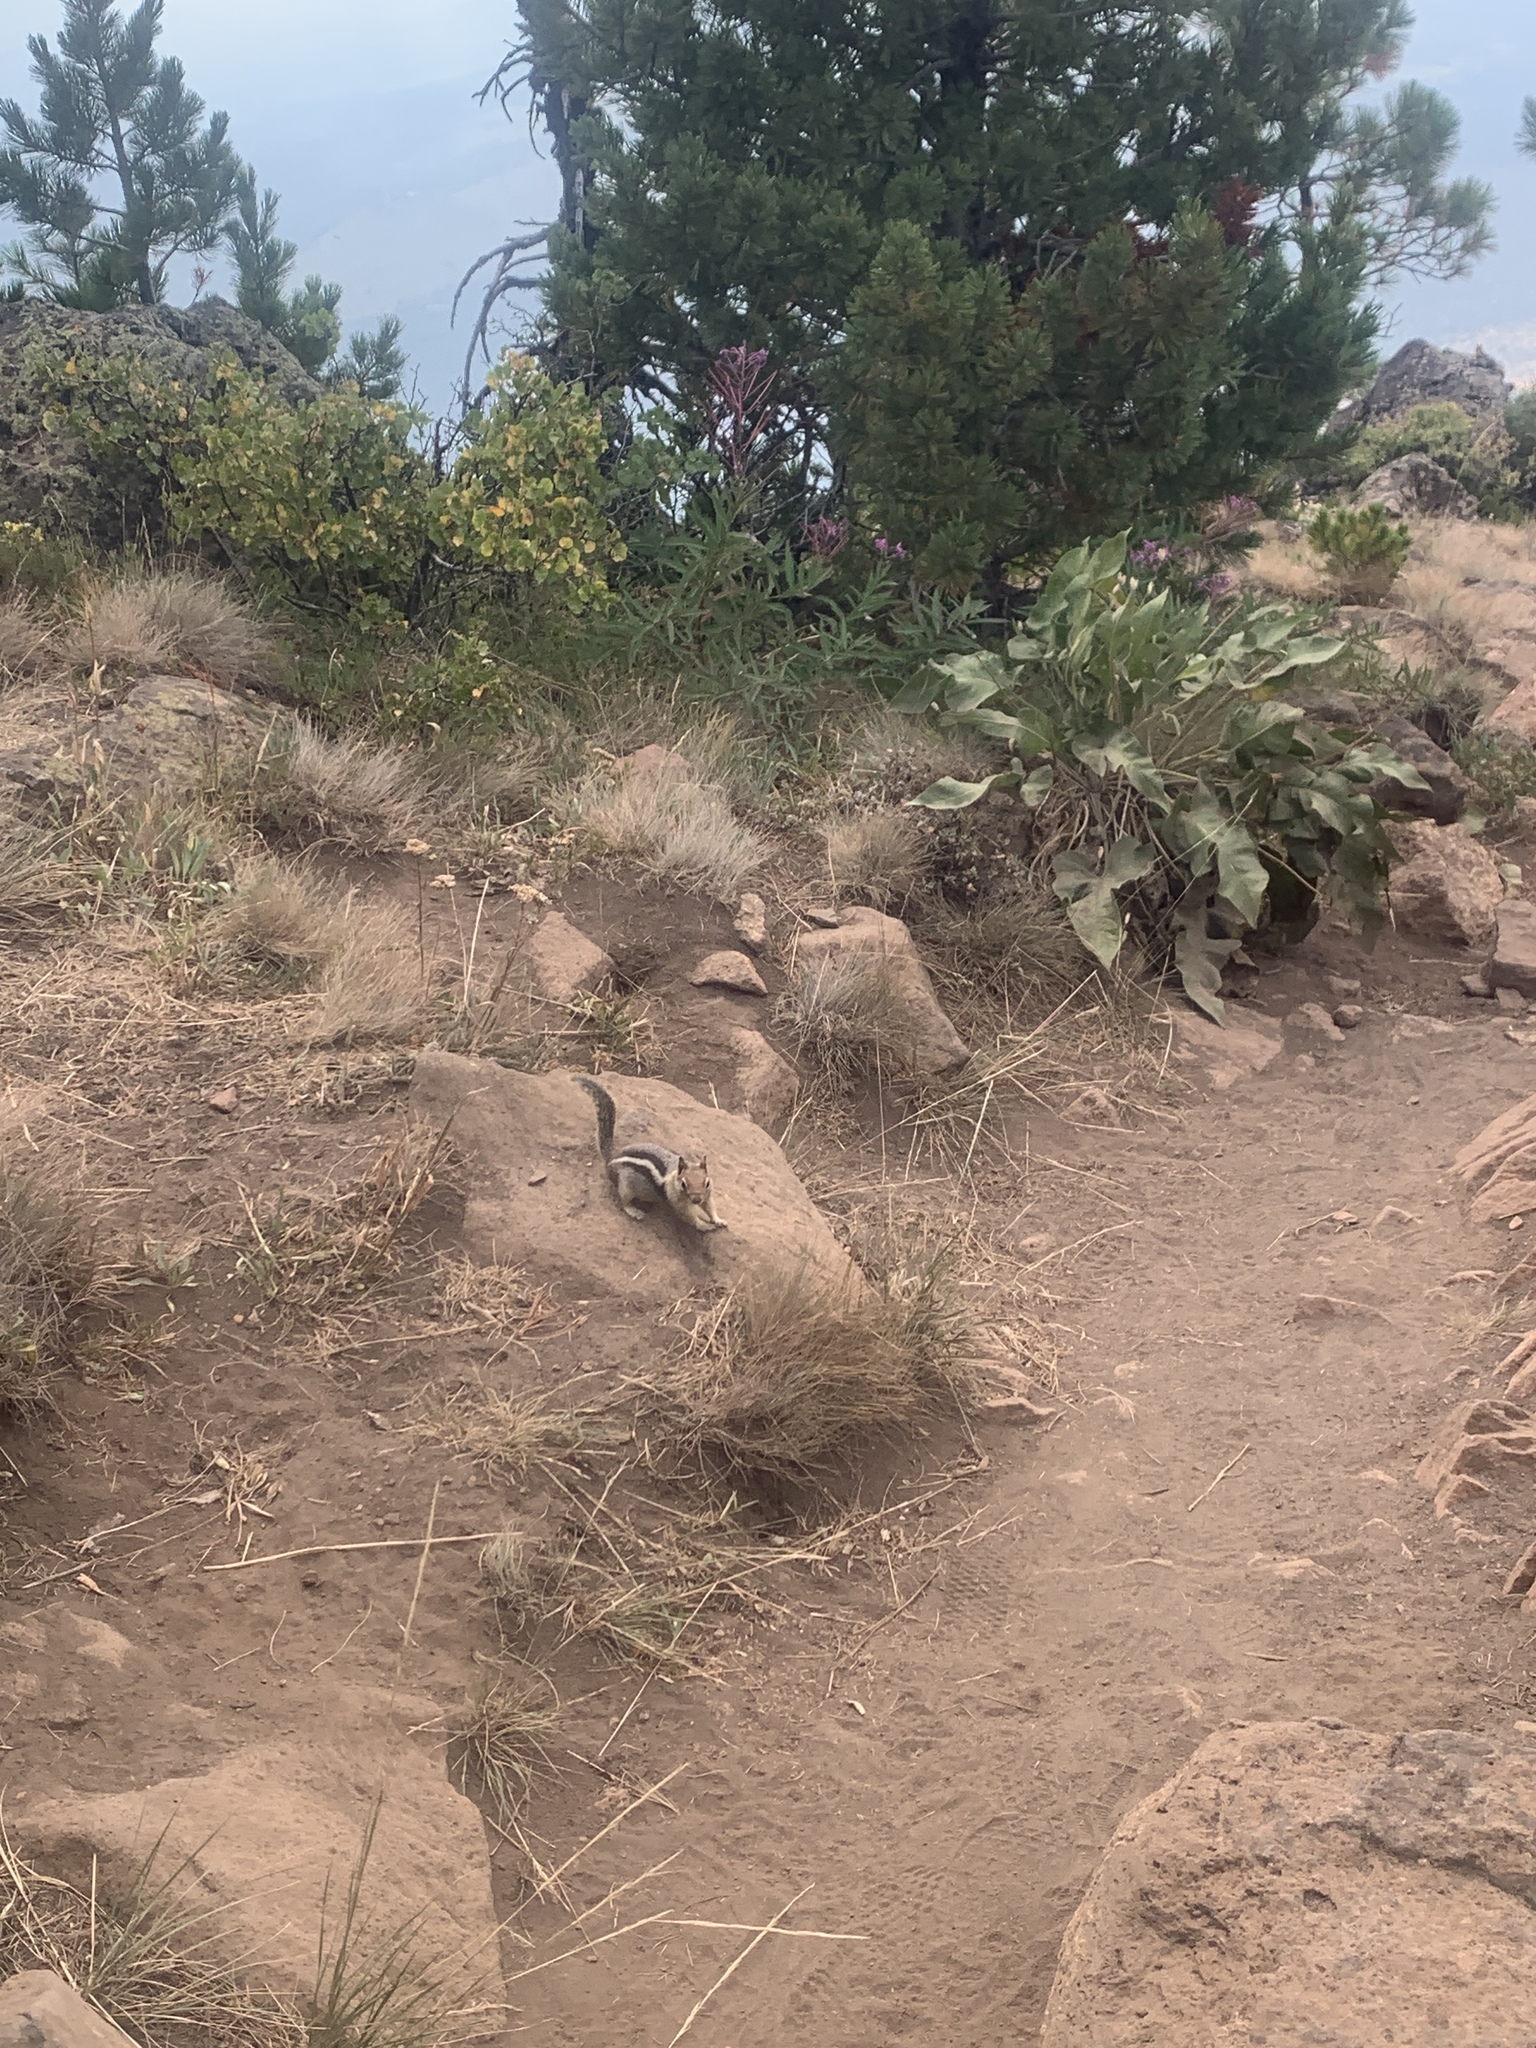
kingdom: Animalia
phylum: Chordata
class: Mammalia
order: Rodentia
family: Sciuridae
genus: Callospermophilus
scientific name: Callospermophilus lateralis
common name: Golden-mantled ground squirrel
